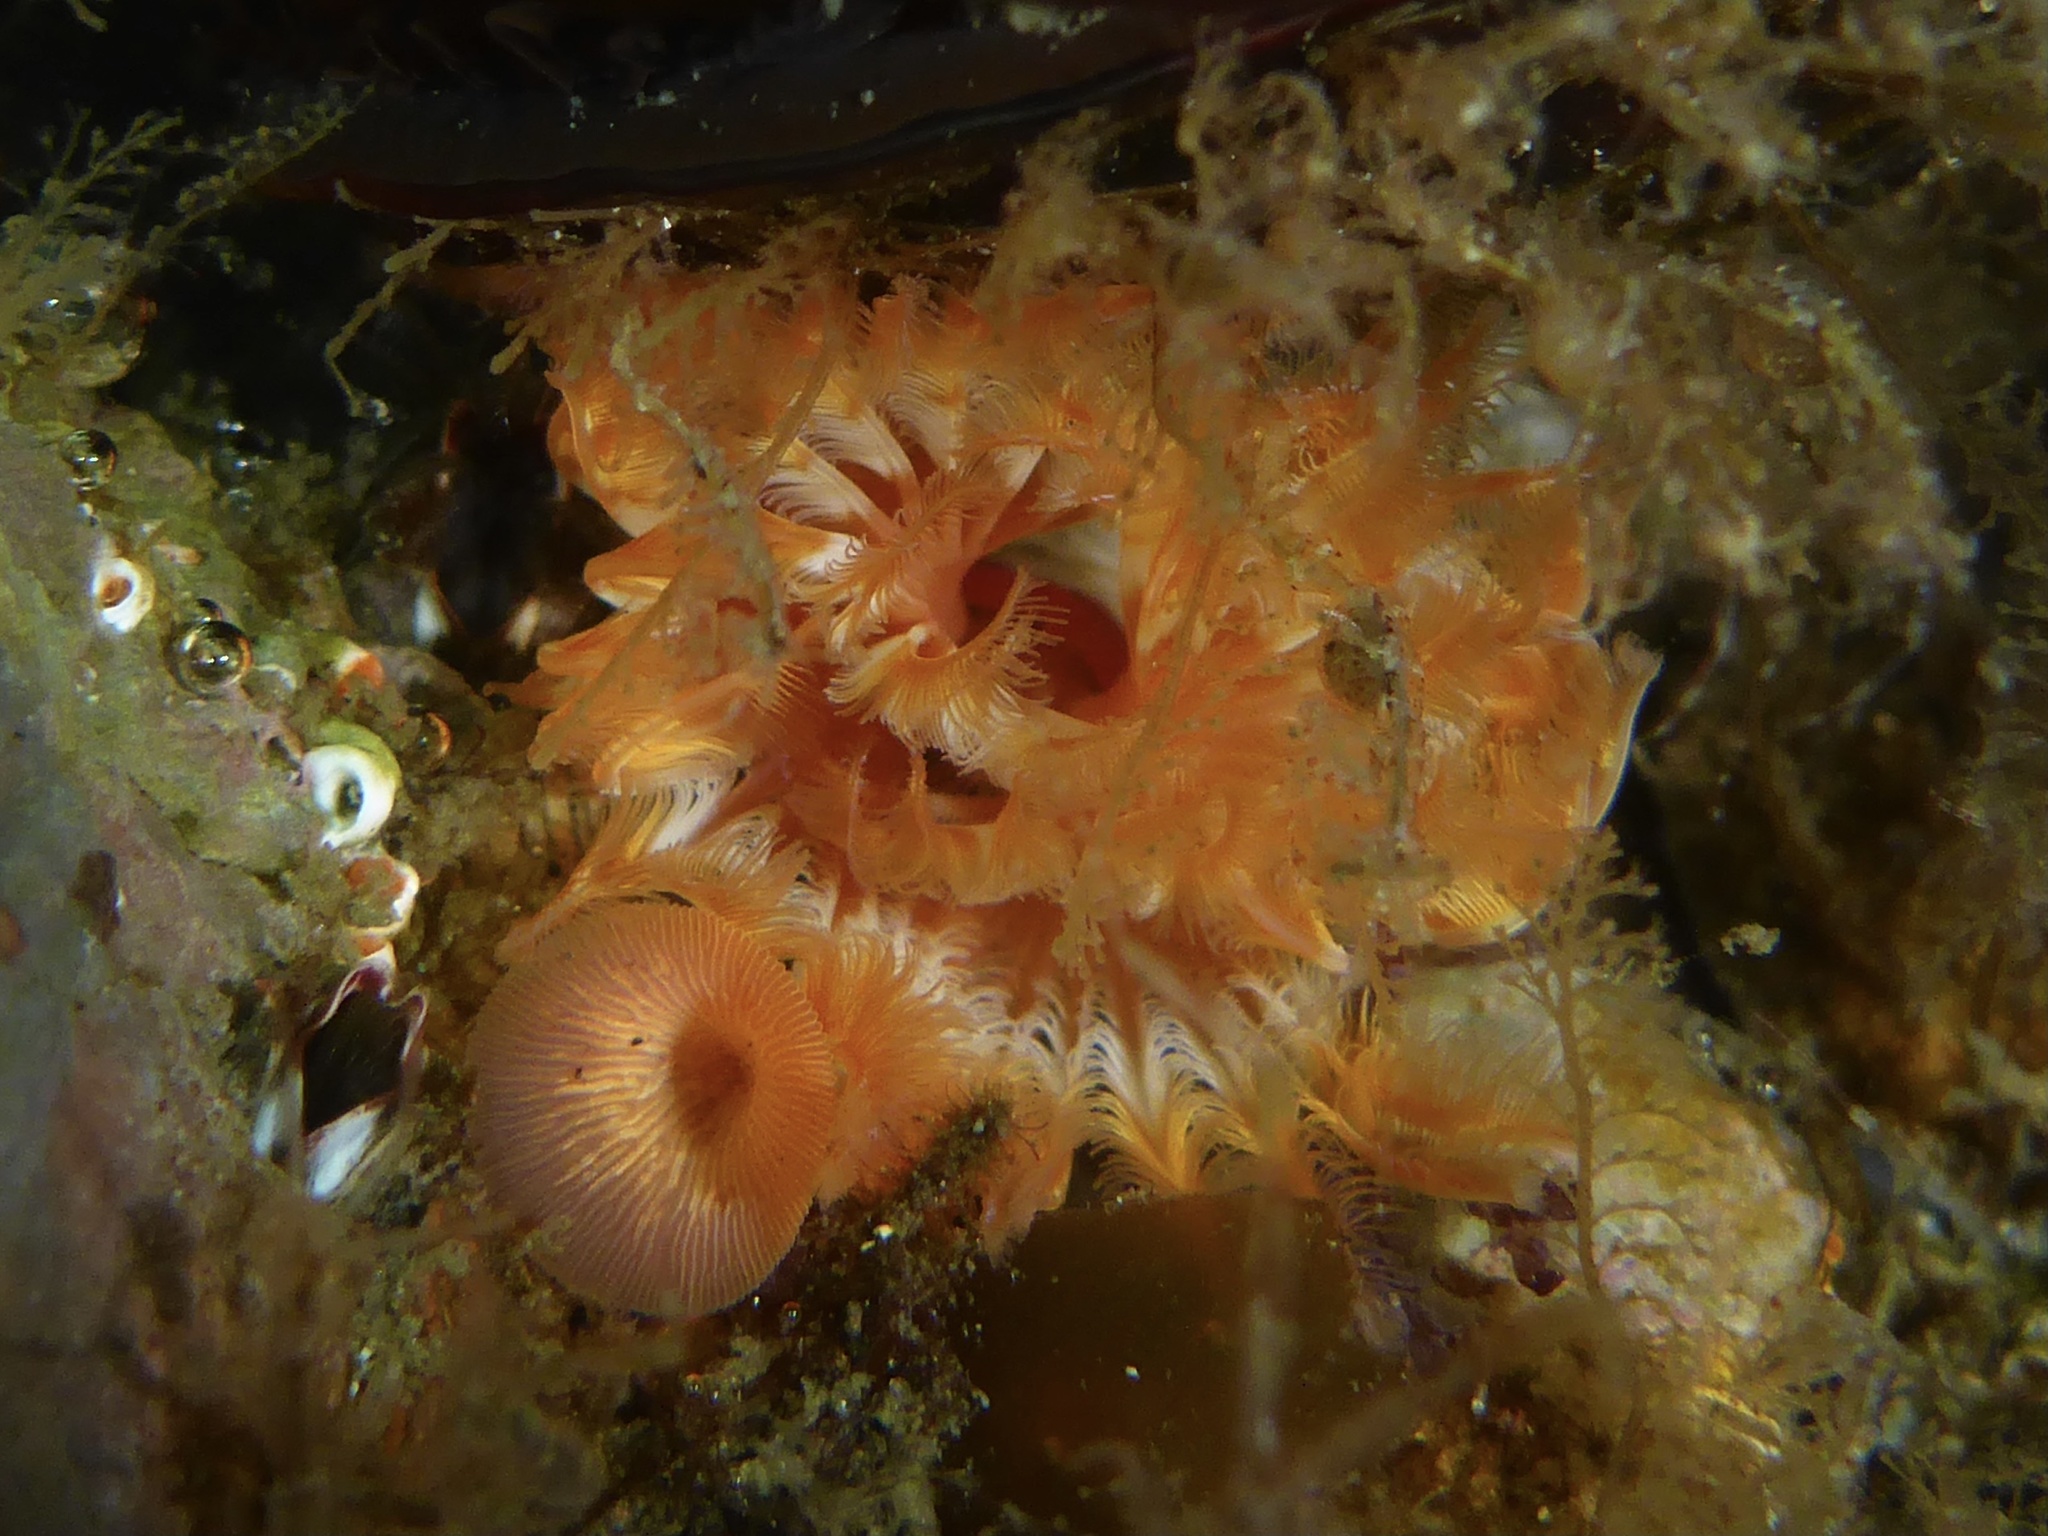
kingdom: Animalia
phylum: Annelida
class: Polychaeta
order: Sabellida
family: Serpulidae
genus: Serpula
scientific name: Serpula columbiana
